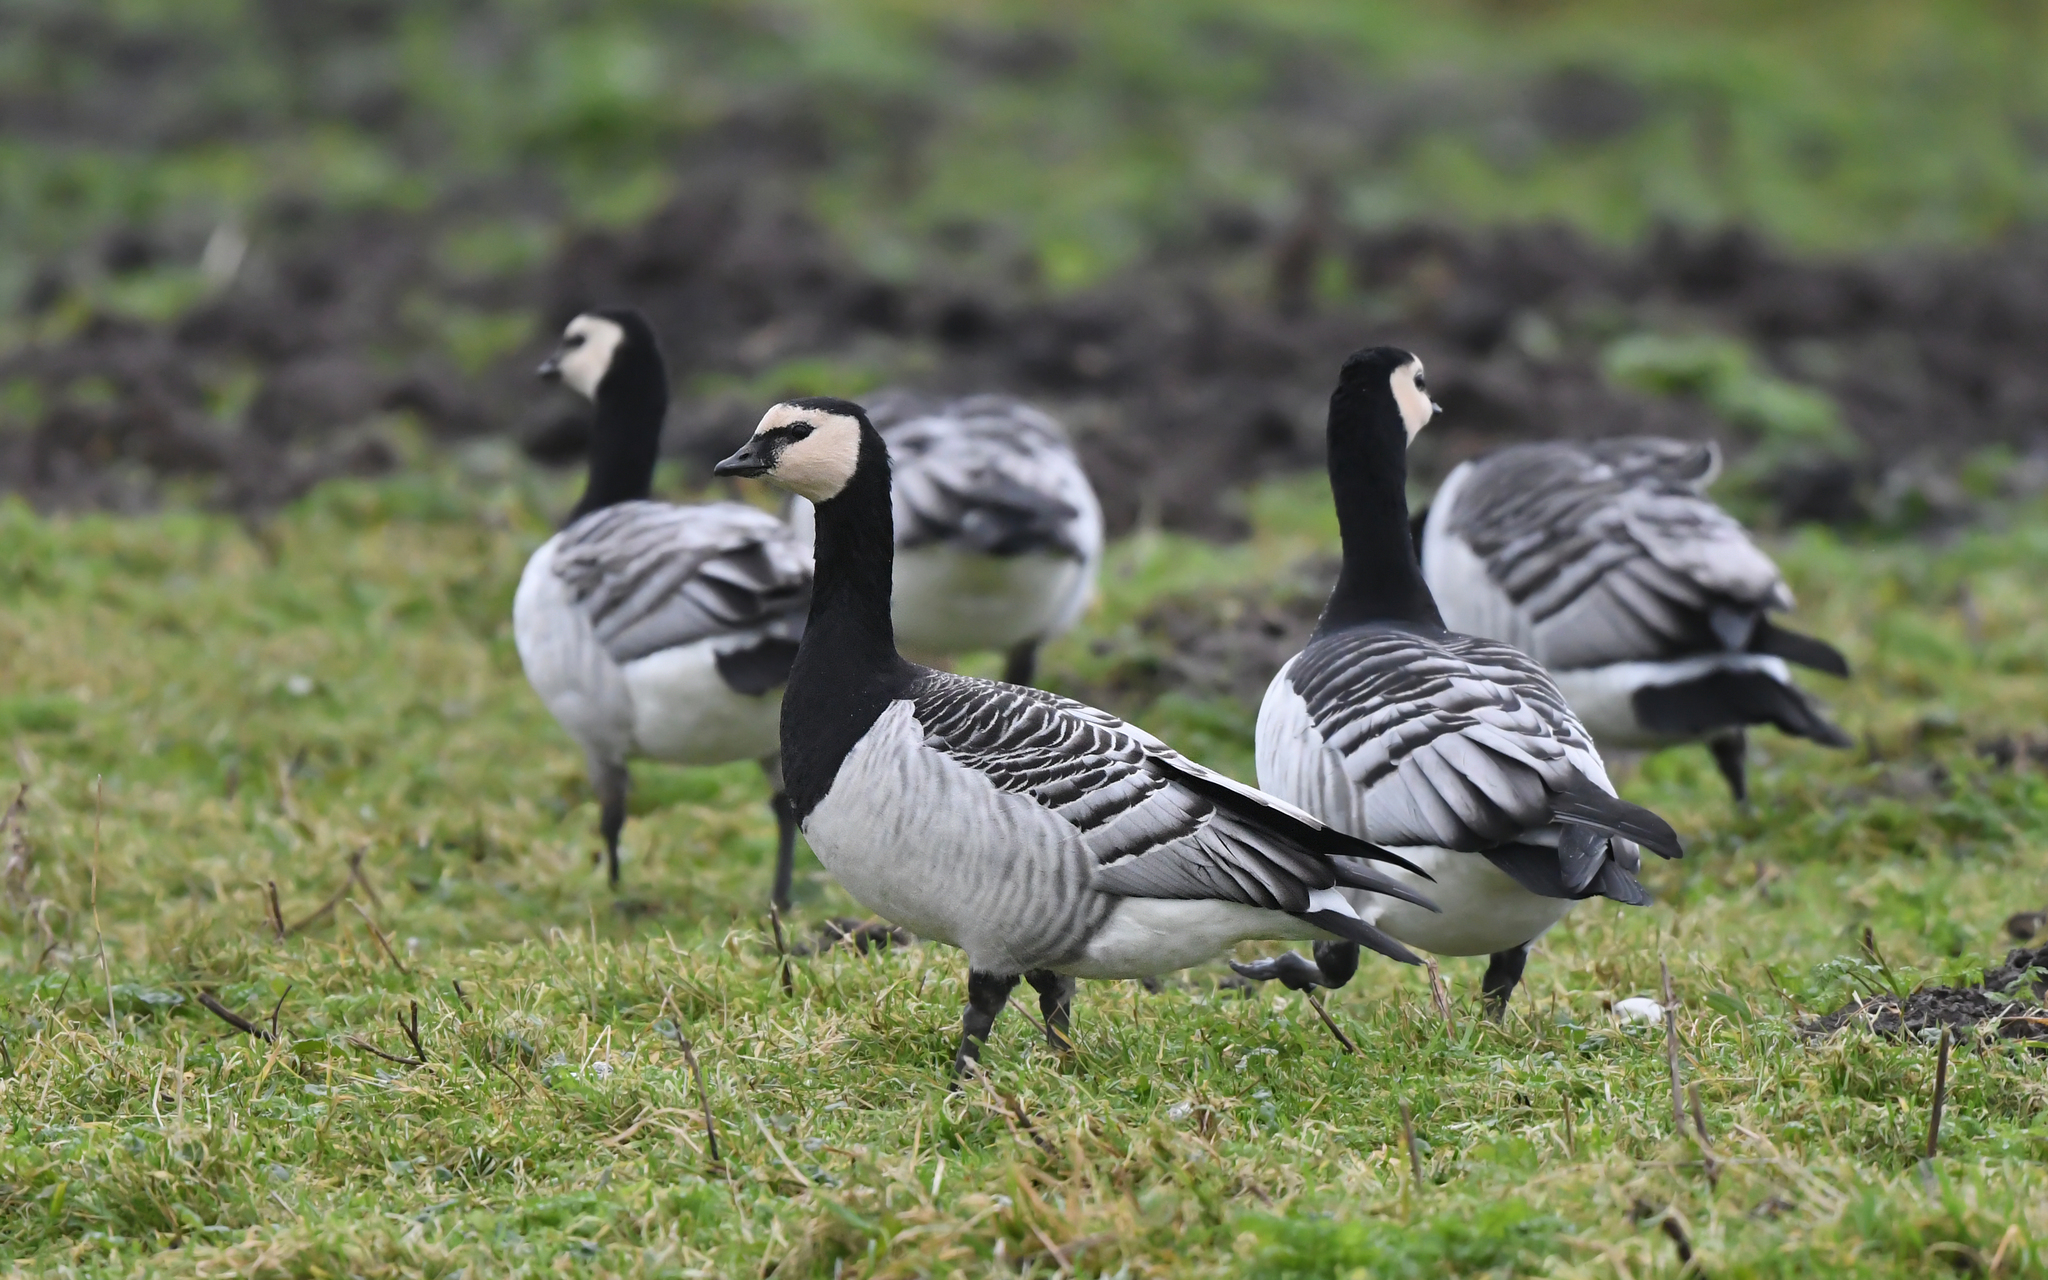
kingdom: Animalia
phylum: Chordata
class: Aves
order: Anseriformes
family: Anatidae
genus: Branta
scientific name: Branta leucopsis
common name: Barnacle goose
